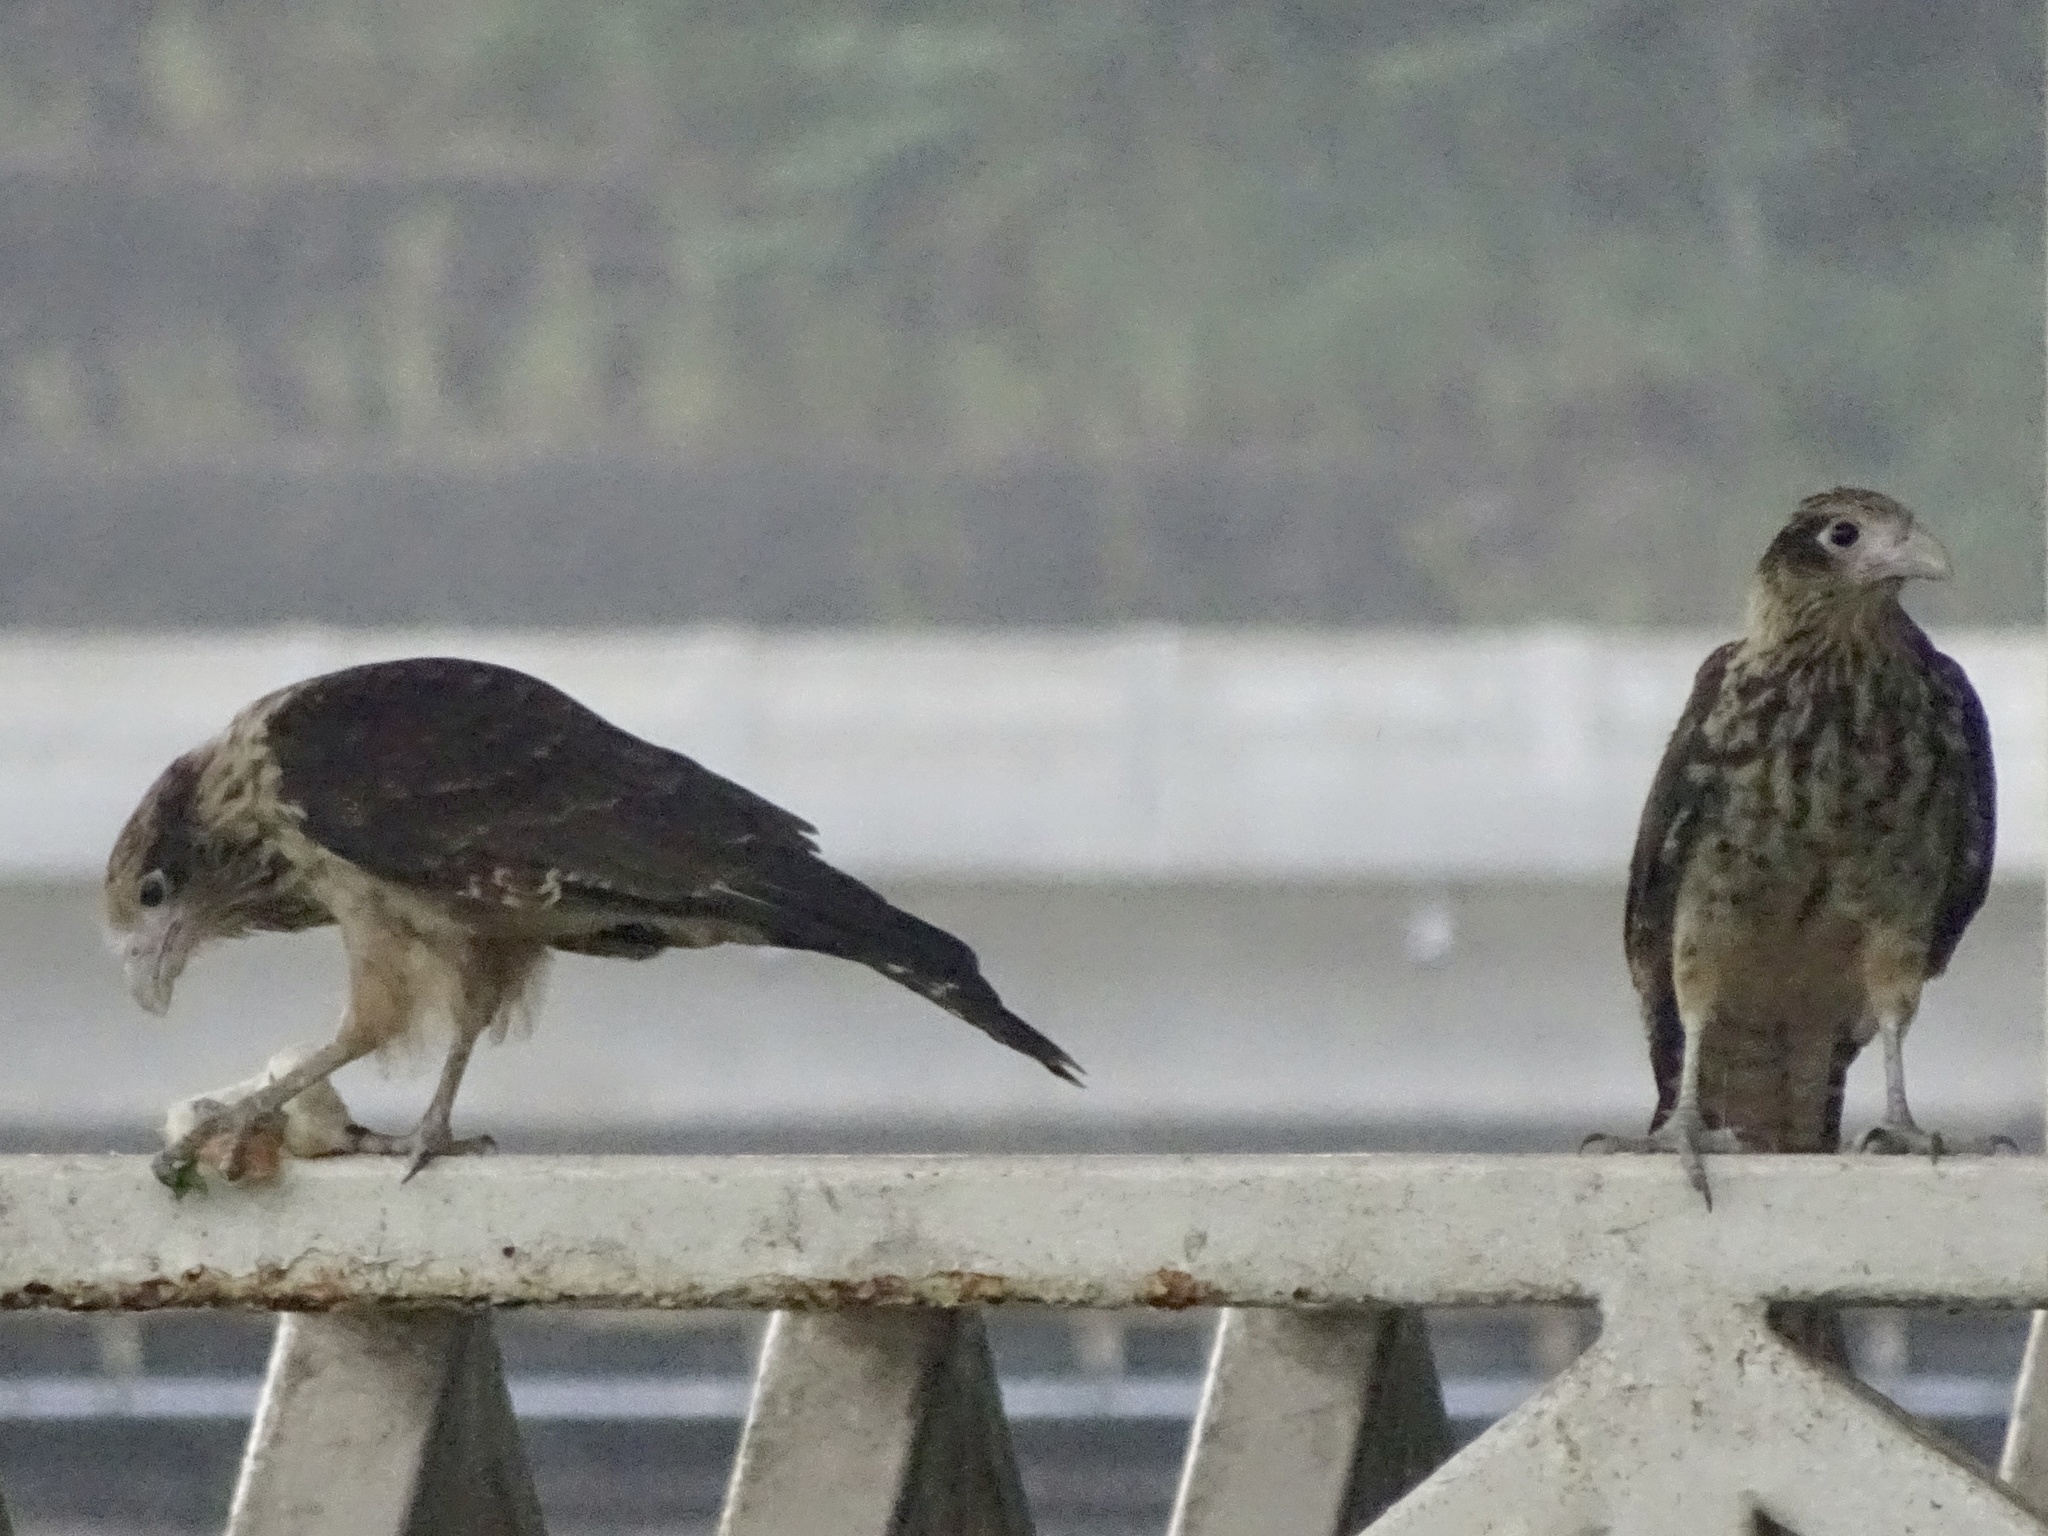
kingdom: Animalia
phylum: Chordata
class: Aves
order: Falconiformes
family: Falconidae
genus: Daptrius
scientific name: Daptrius
